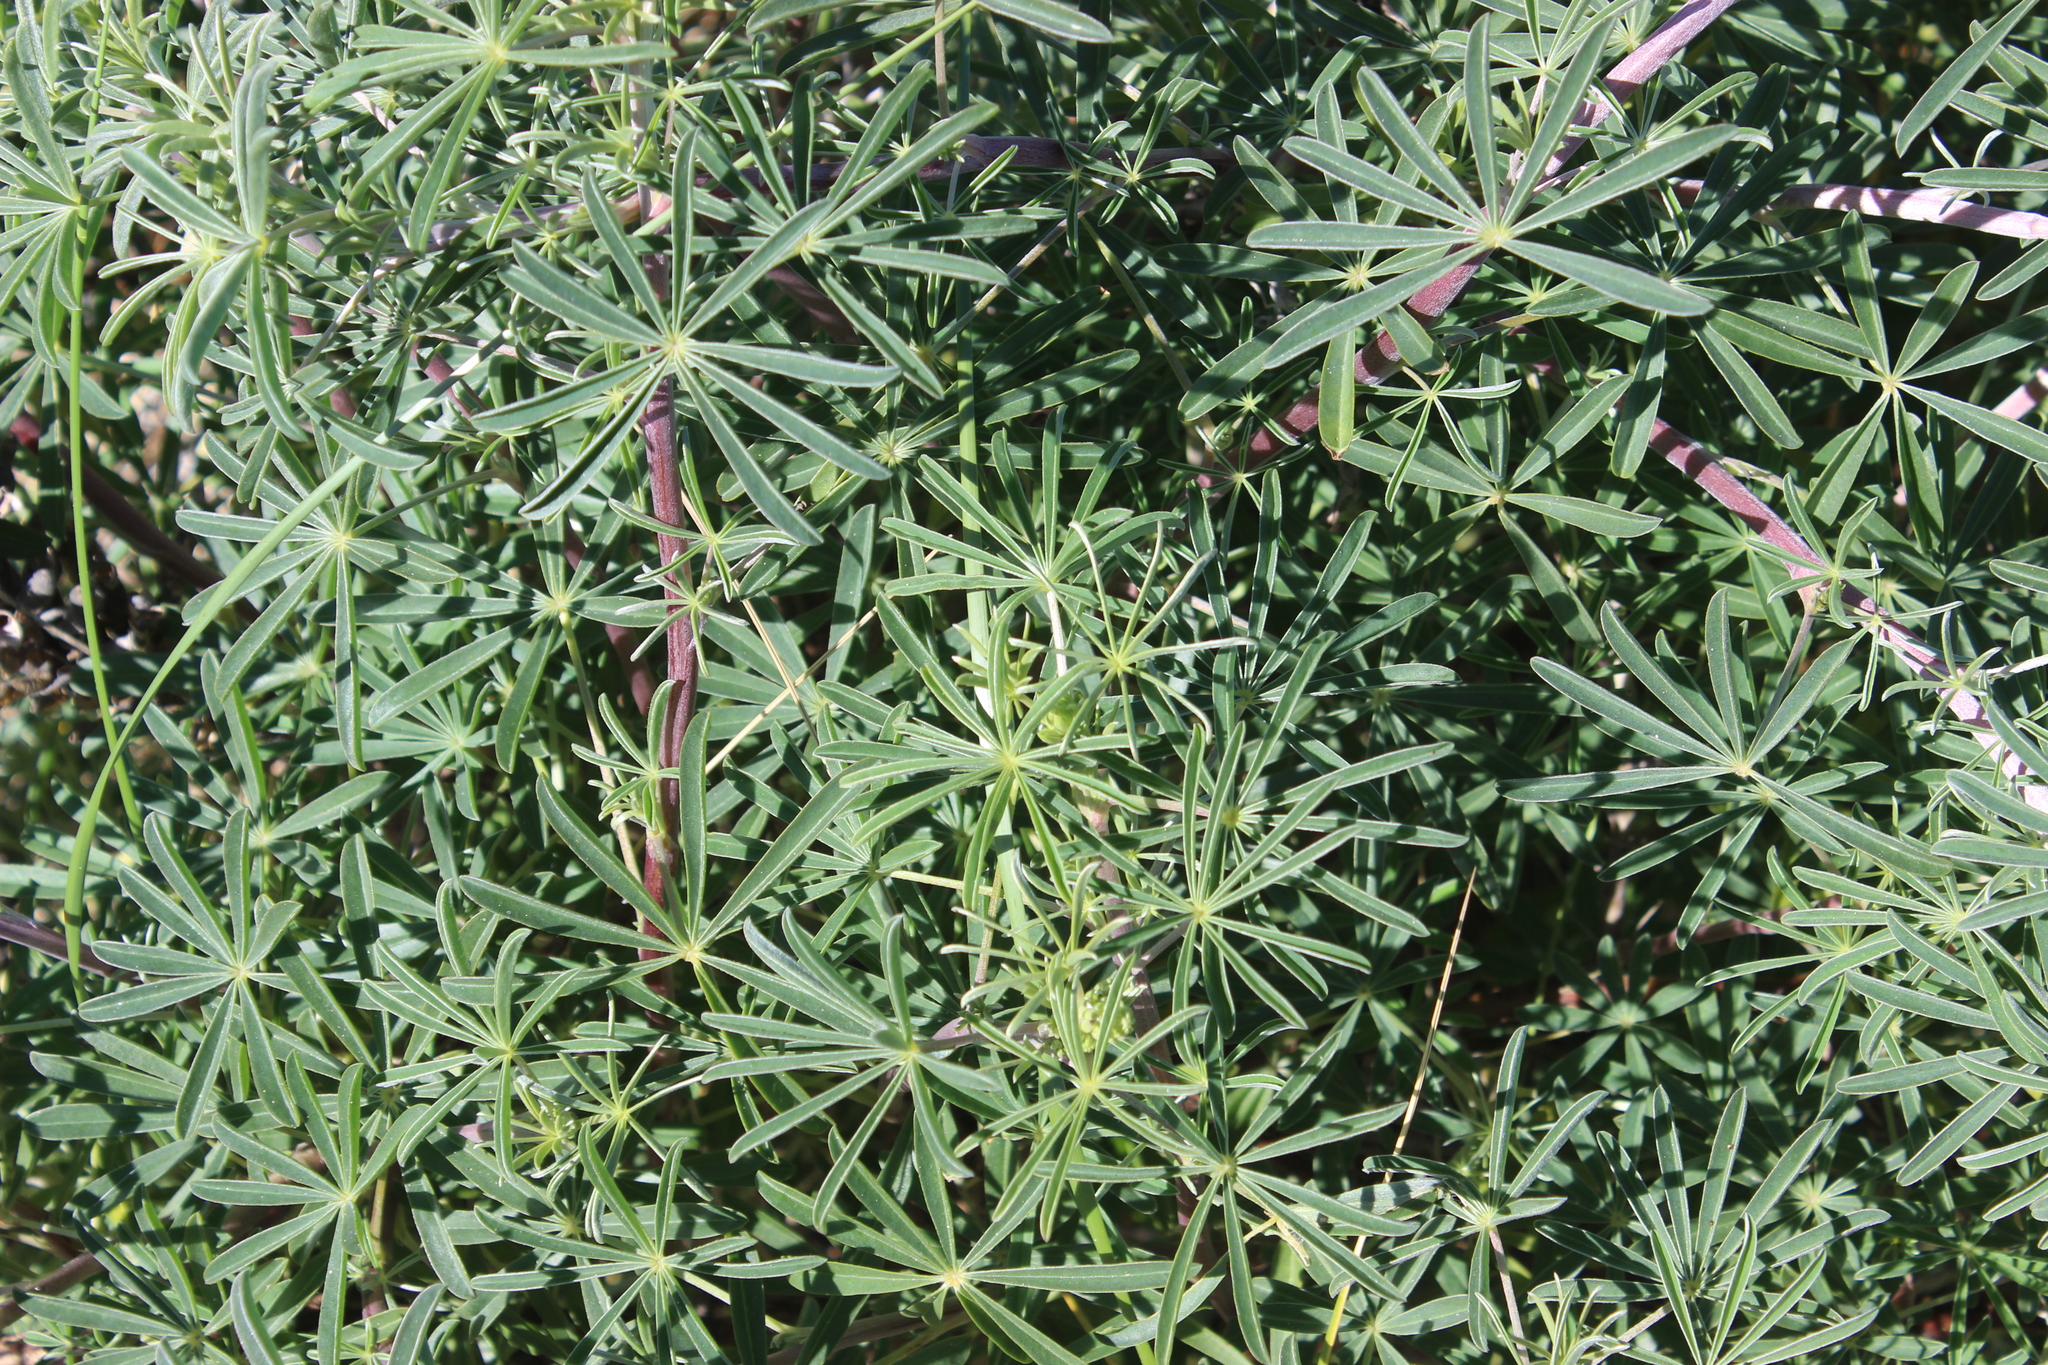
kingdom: Plantae
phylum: Tracheophyta
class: Magnoliopsida
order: Fabales
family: Fabaceae
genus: Lupinus
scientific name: Lupinus arboreus
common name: Yellow bush lupine
